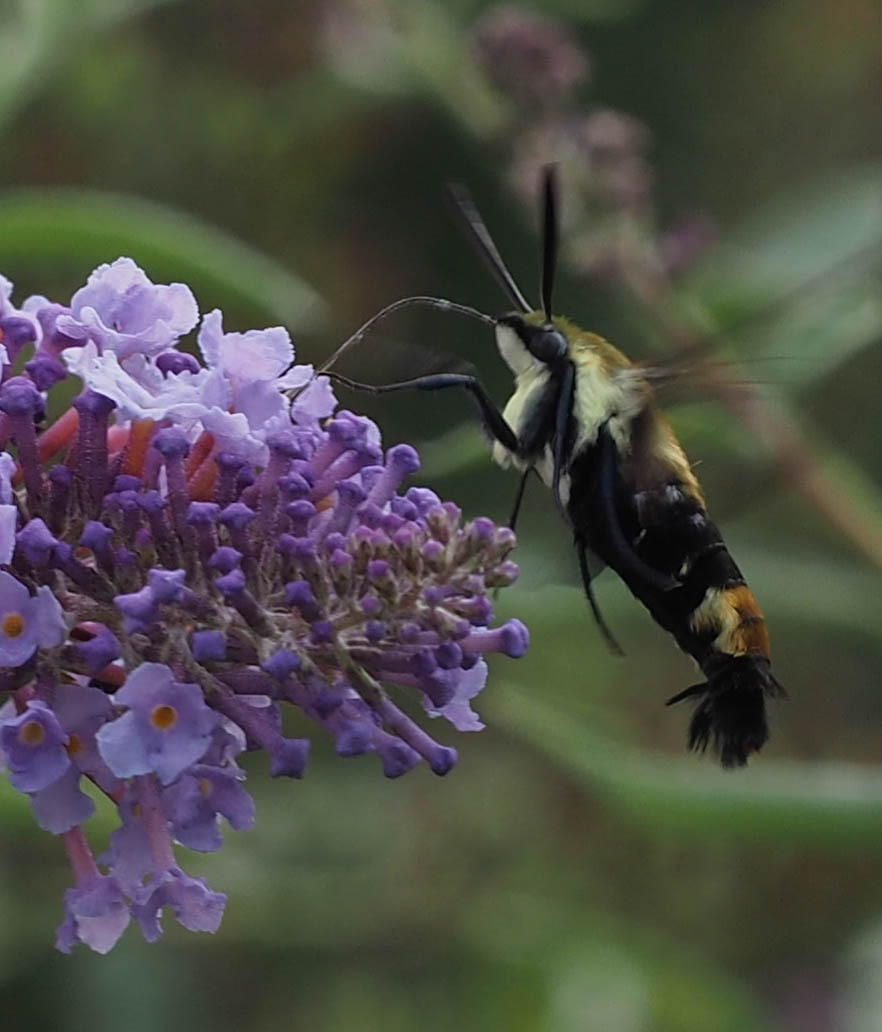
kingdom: Animalia
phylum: Arthropoda
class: Insecta
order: Lepidoptera
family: Sphingidae
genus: Hemaris
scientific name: Hemaris diffinis
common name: Bumblebee moth
